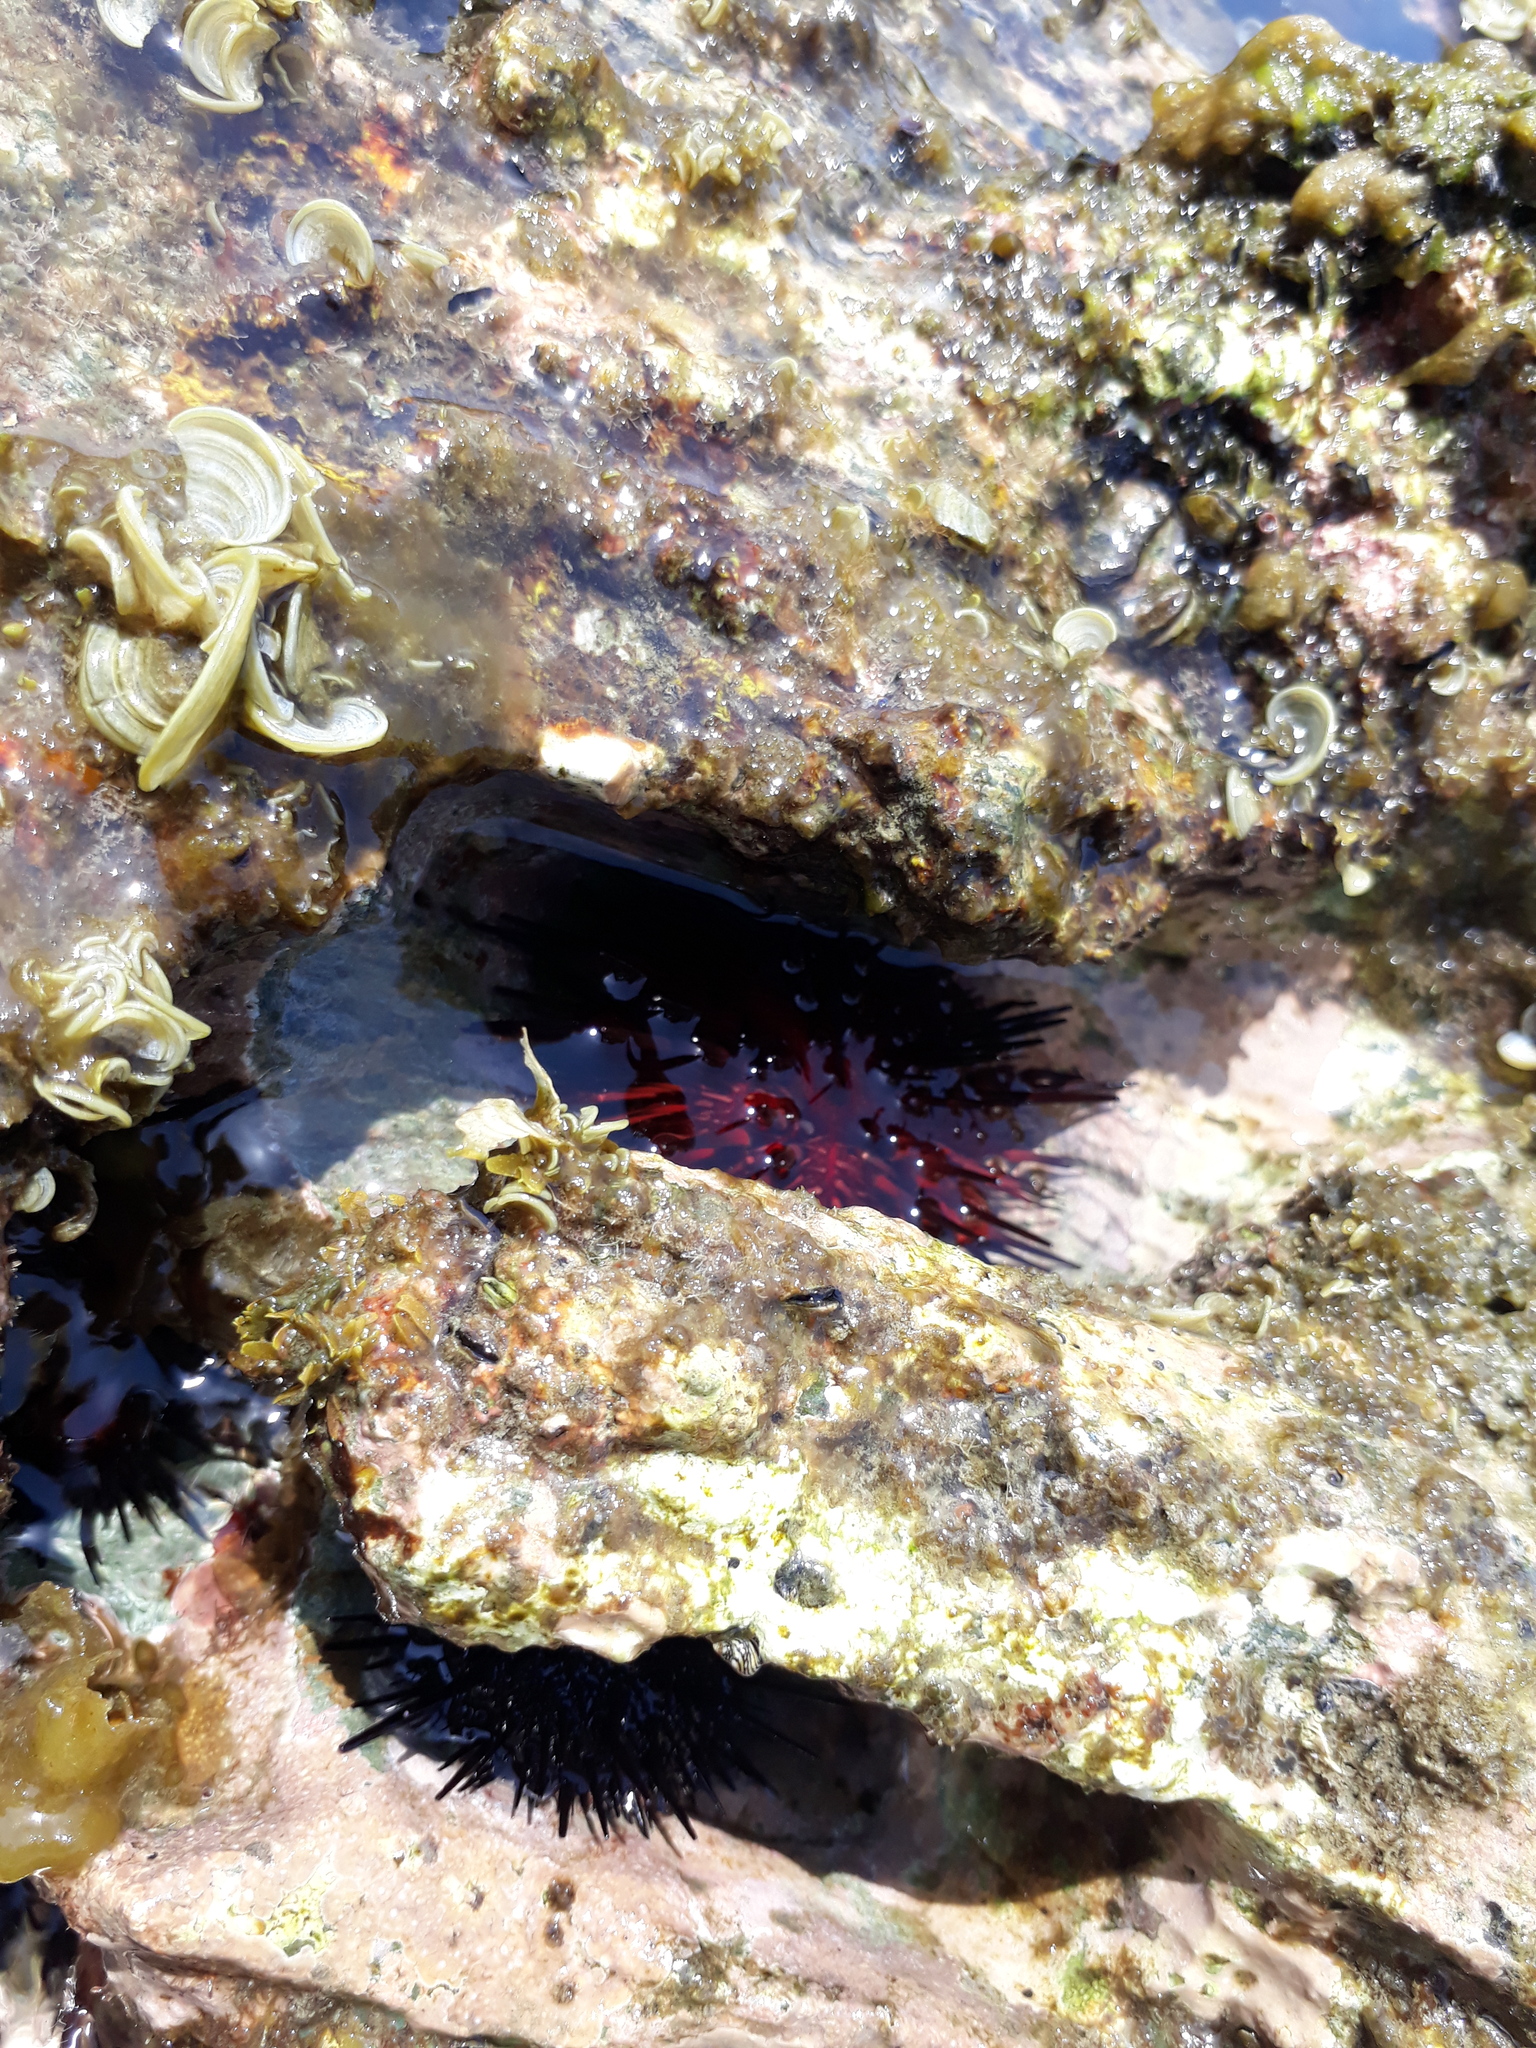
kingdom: Animalia
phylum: Echinodermata
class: Echinoidea
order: Camarodonta
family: Echinometridae
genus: Echinometra
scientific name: Echinometra lucunter
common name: Rock urchin
